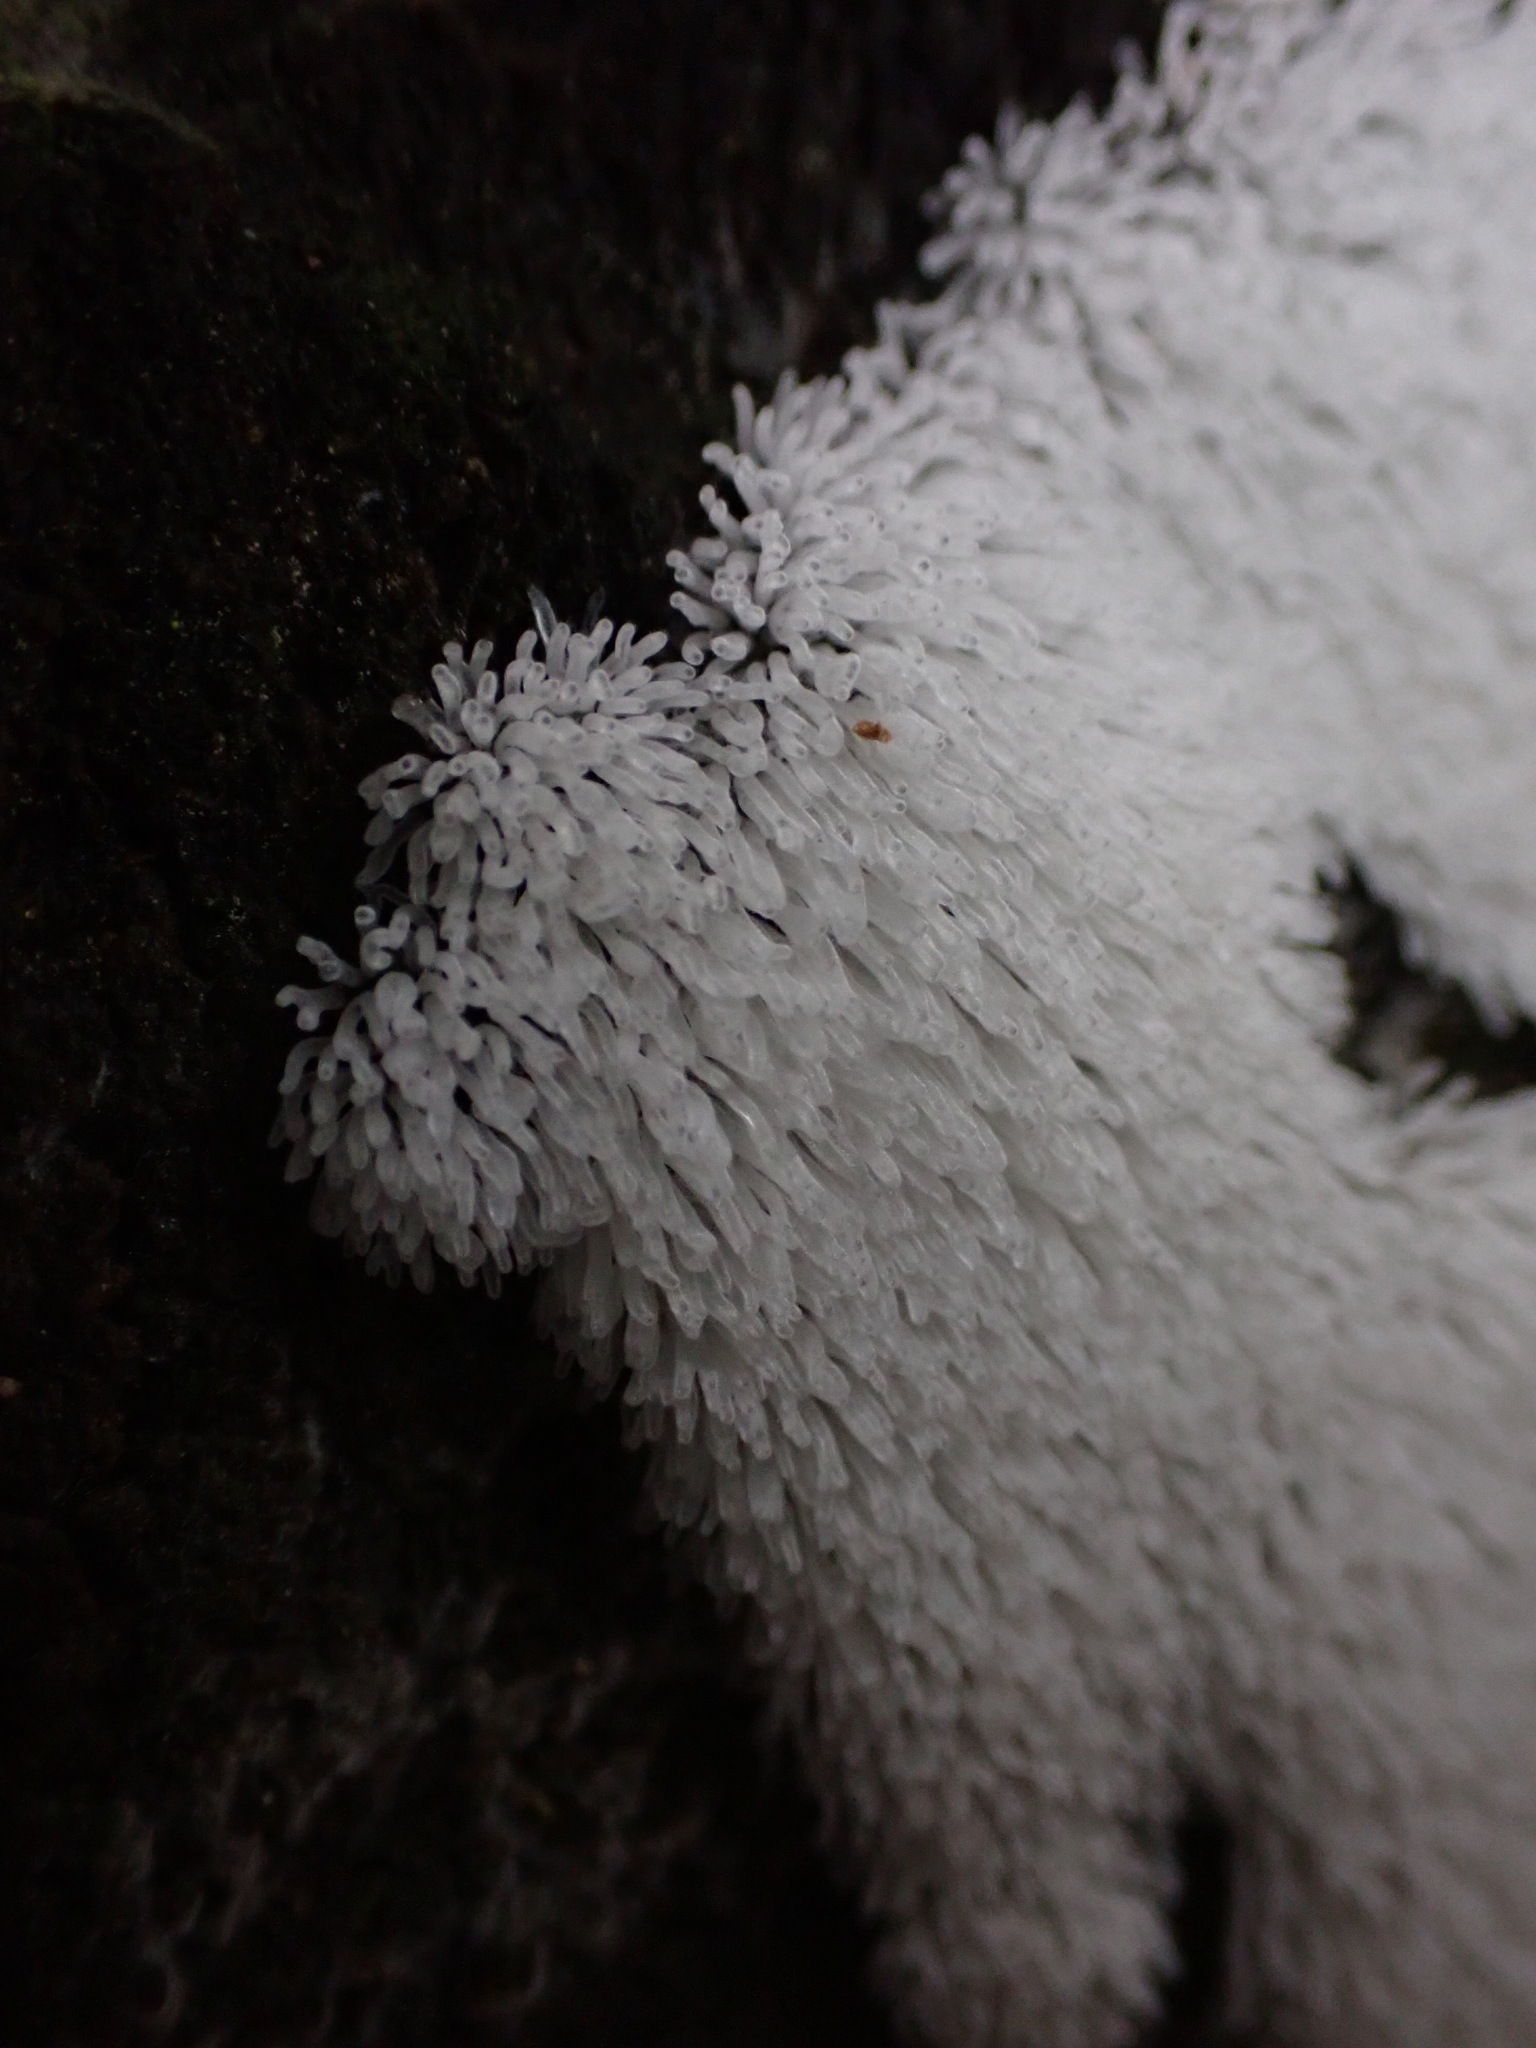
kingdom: Protozoa
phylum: Mycetozoa
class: Protosteliomycetes
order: Ceratiomyxales
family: Ceratiomyxaceae
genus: Ceratiomyxa
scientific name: Ceratiomyxa fruticulosa
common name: Honeycomb coral slime mold
